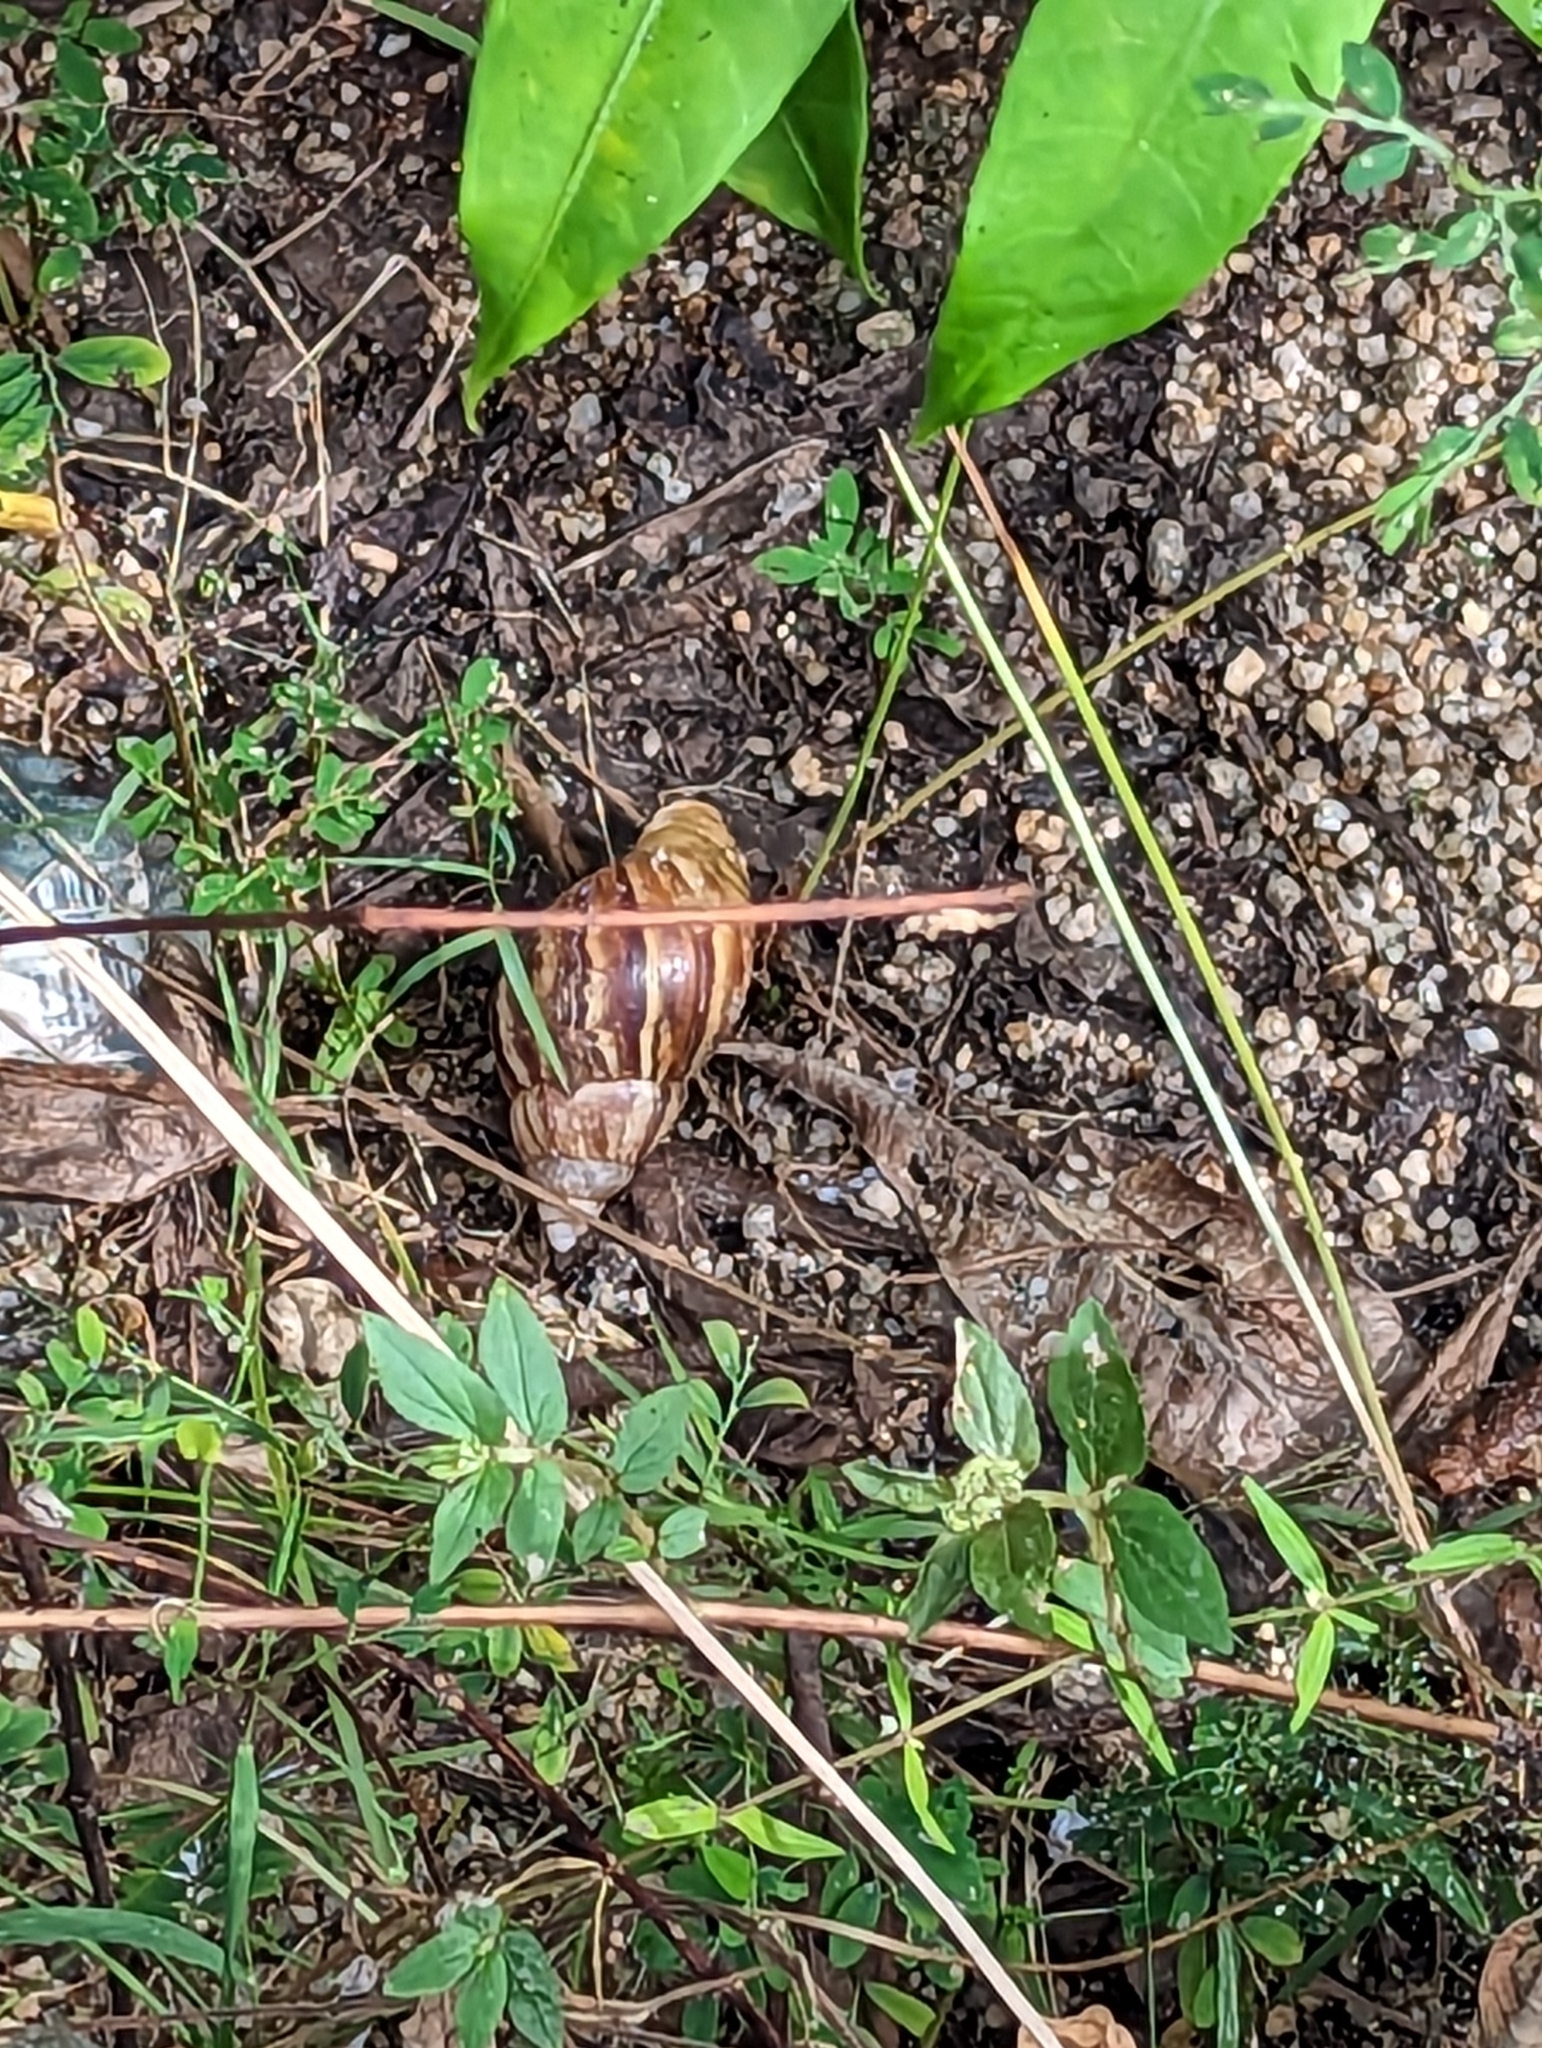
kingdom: Animalia
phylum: Mollusca
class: Gastropoda
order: Stylommatophora
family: Achatinidae
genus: Lissachatina
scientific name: Lissachatina fulica
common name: Giant african snail
